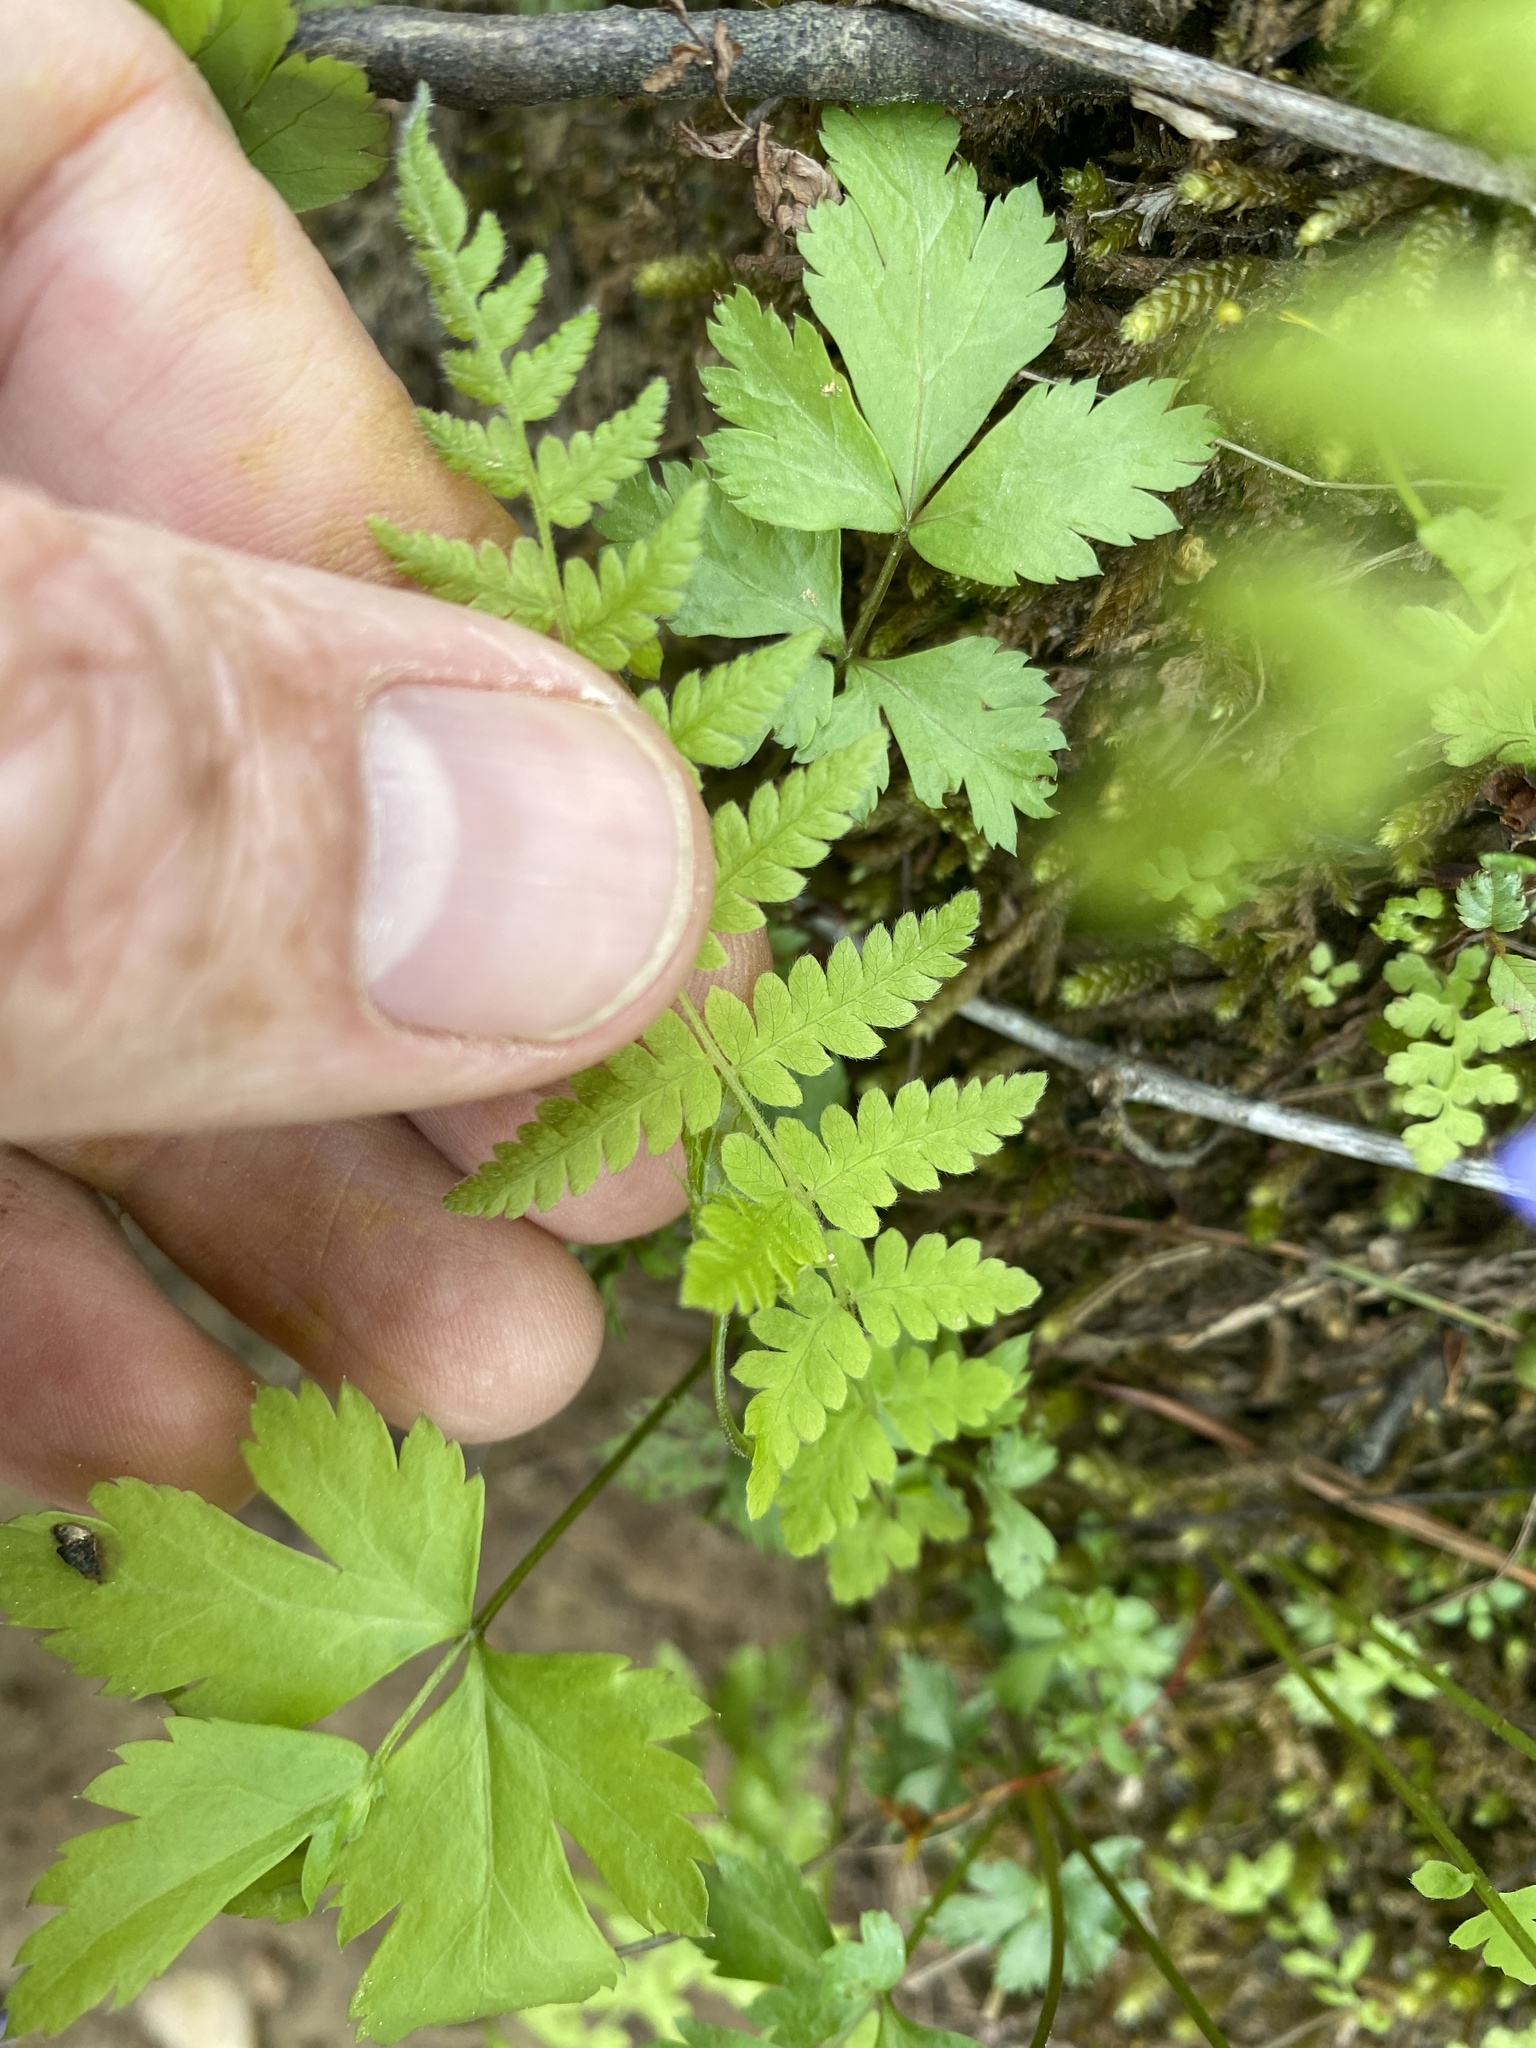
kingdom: Plantae
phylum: Tracheophyta
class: Polypodiopsida
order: Polypodiales
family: Thelypteridaceae
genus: Amauropelta
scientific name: Amauropelta noveboracensis
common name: New york fern
